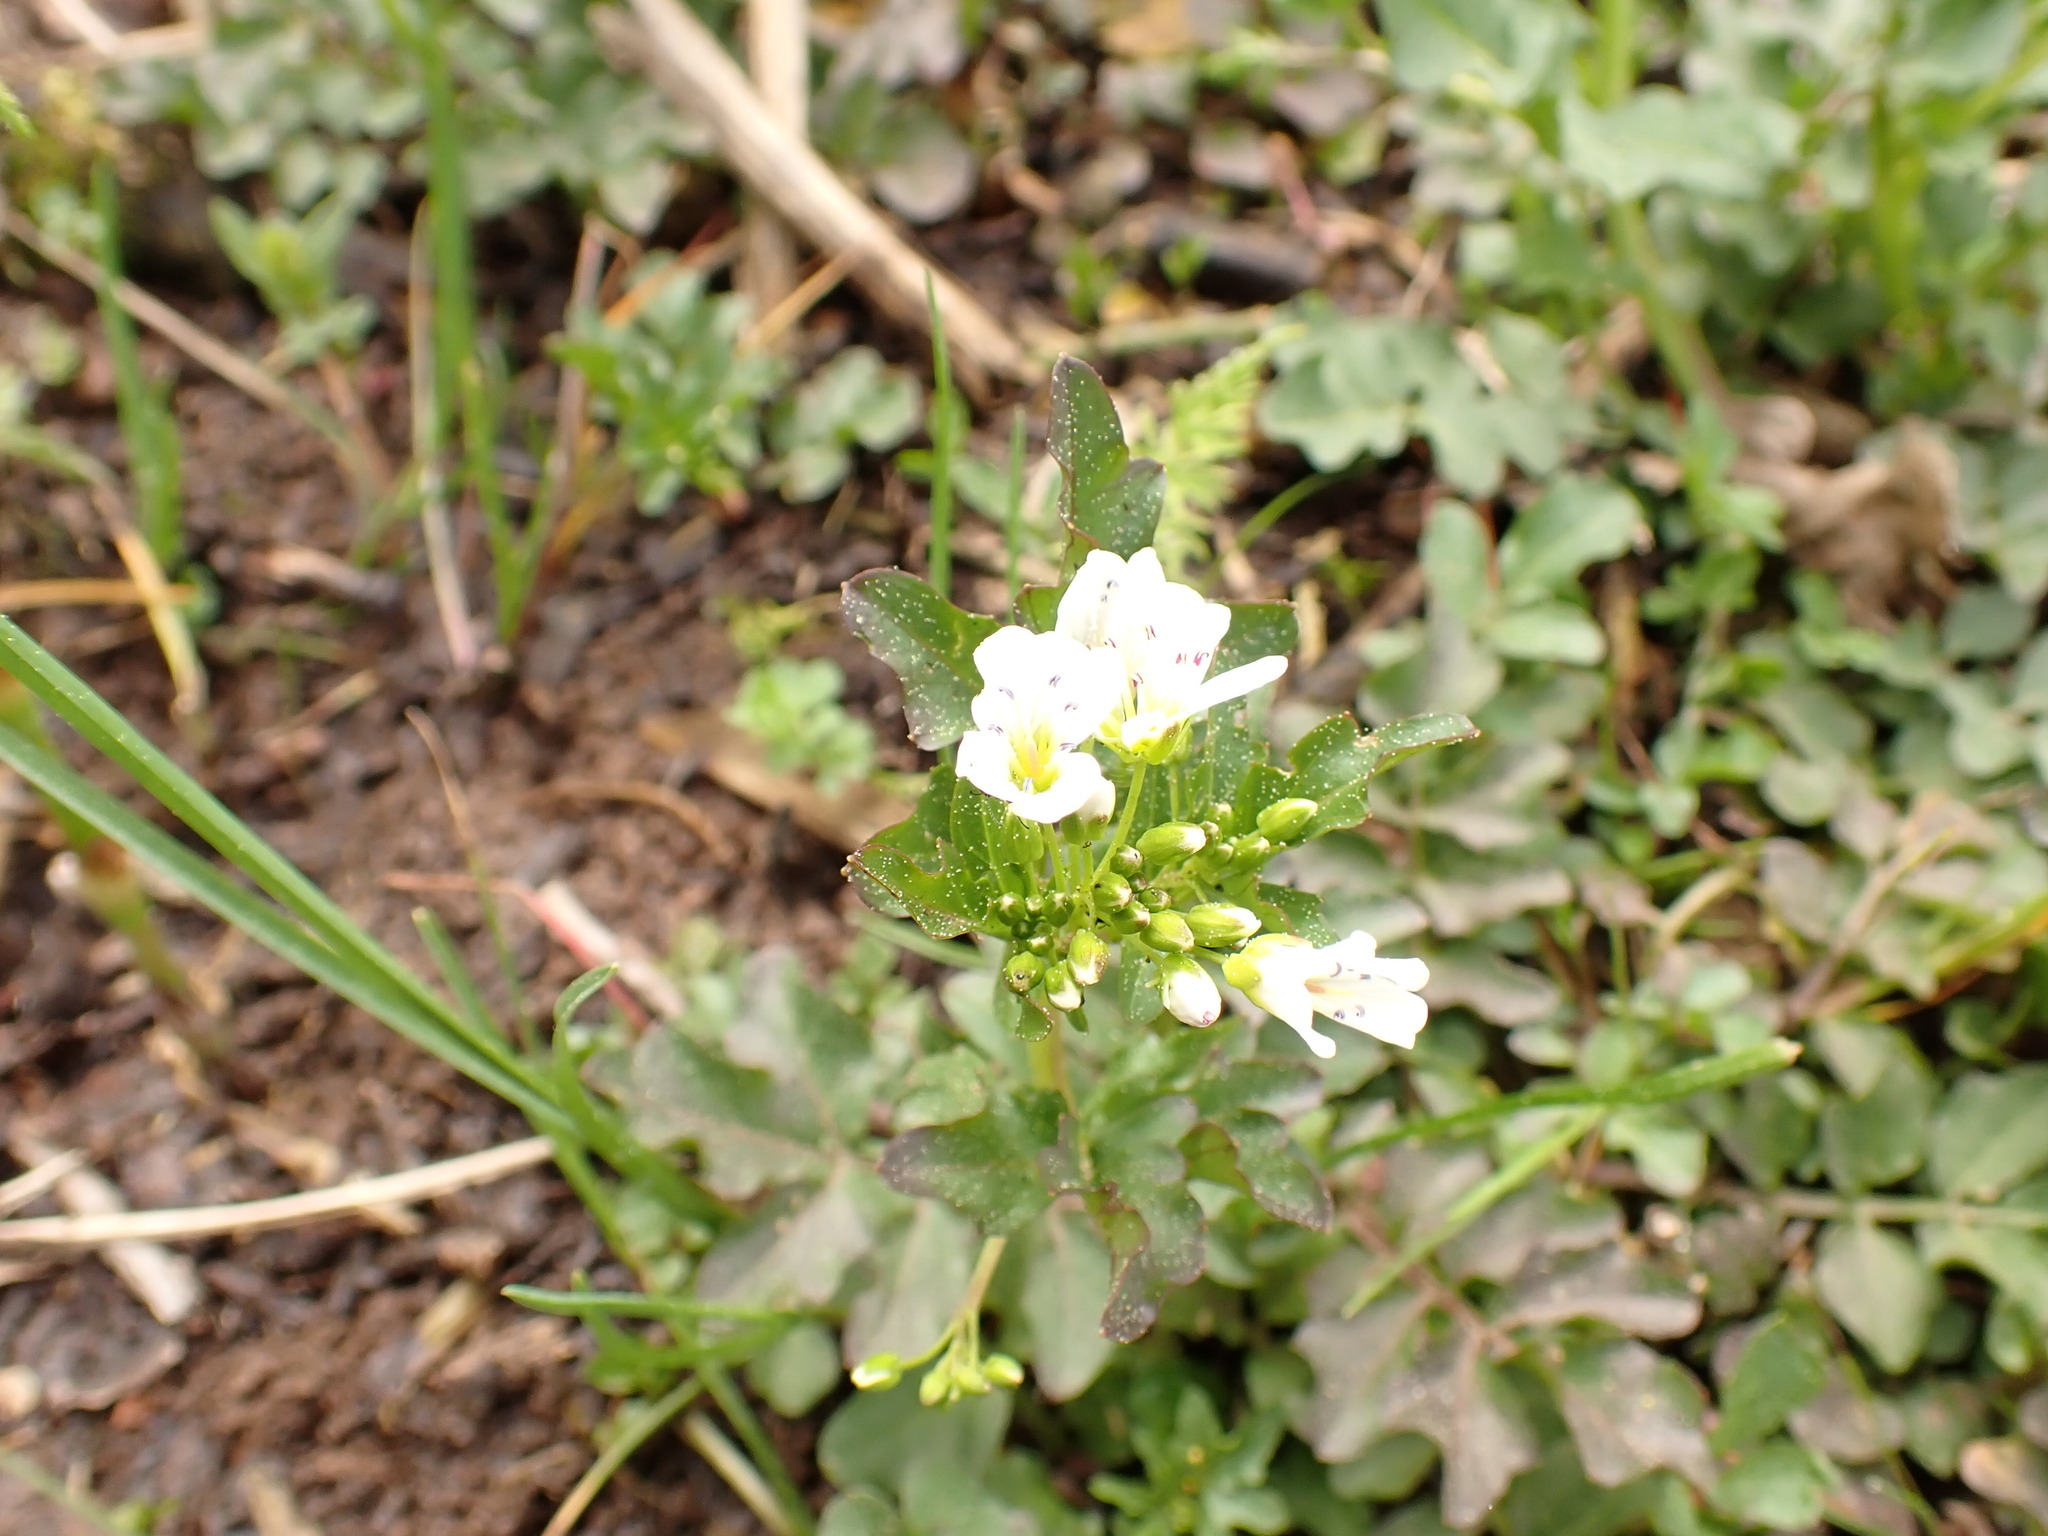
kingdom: Plantae
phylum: Tracheophyta
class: Magnoliopsida
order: Brassicales
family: Brassicaceae
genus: Cardamine
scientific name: Cardamine amara
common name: Large bitter-cress
